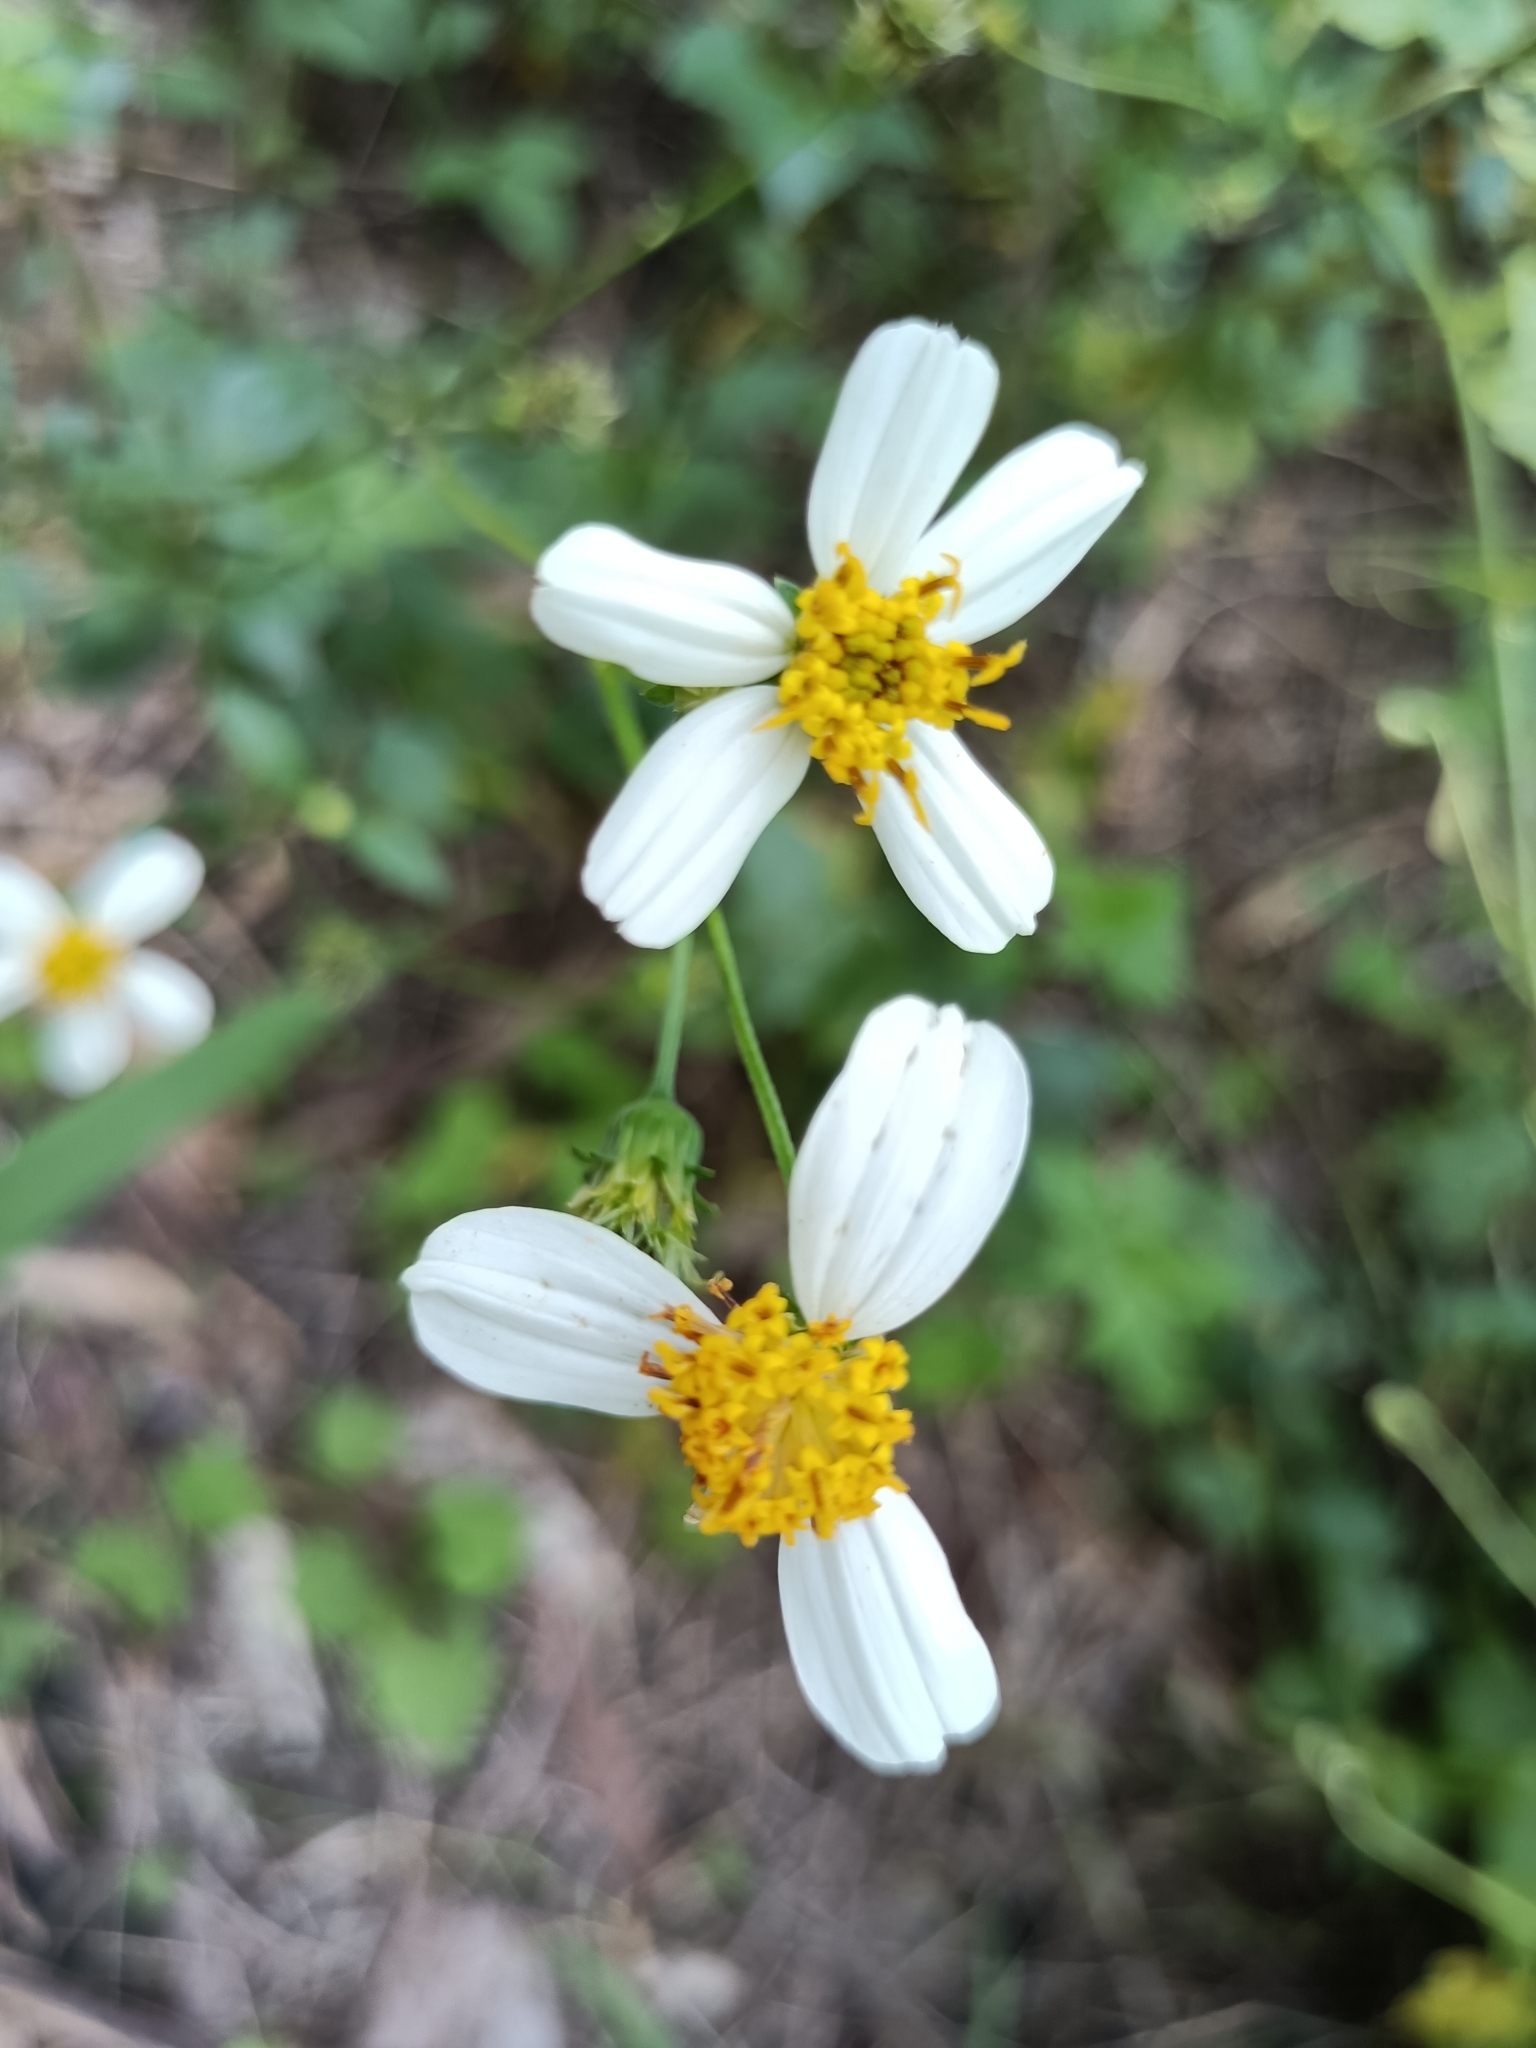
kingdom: Plantae
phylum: Tracheophyta
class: Magnoliopsida
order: Asterales
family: Asteraceae
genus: Bidens
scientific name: Bidens alba
